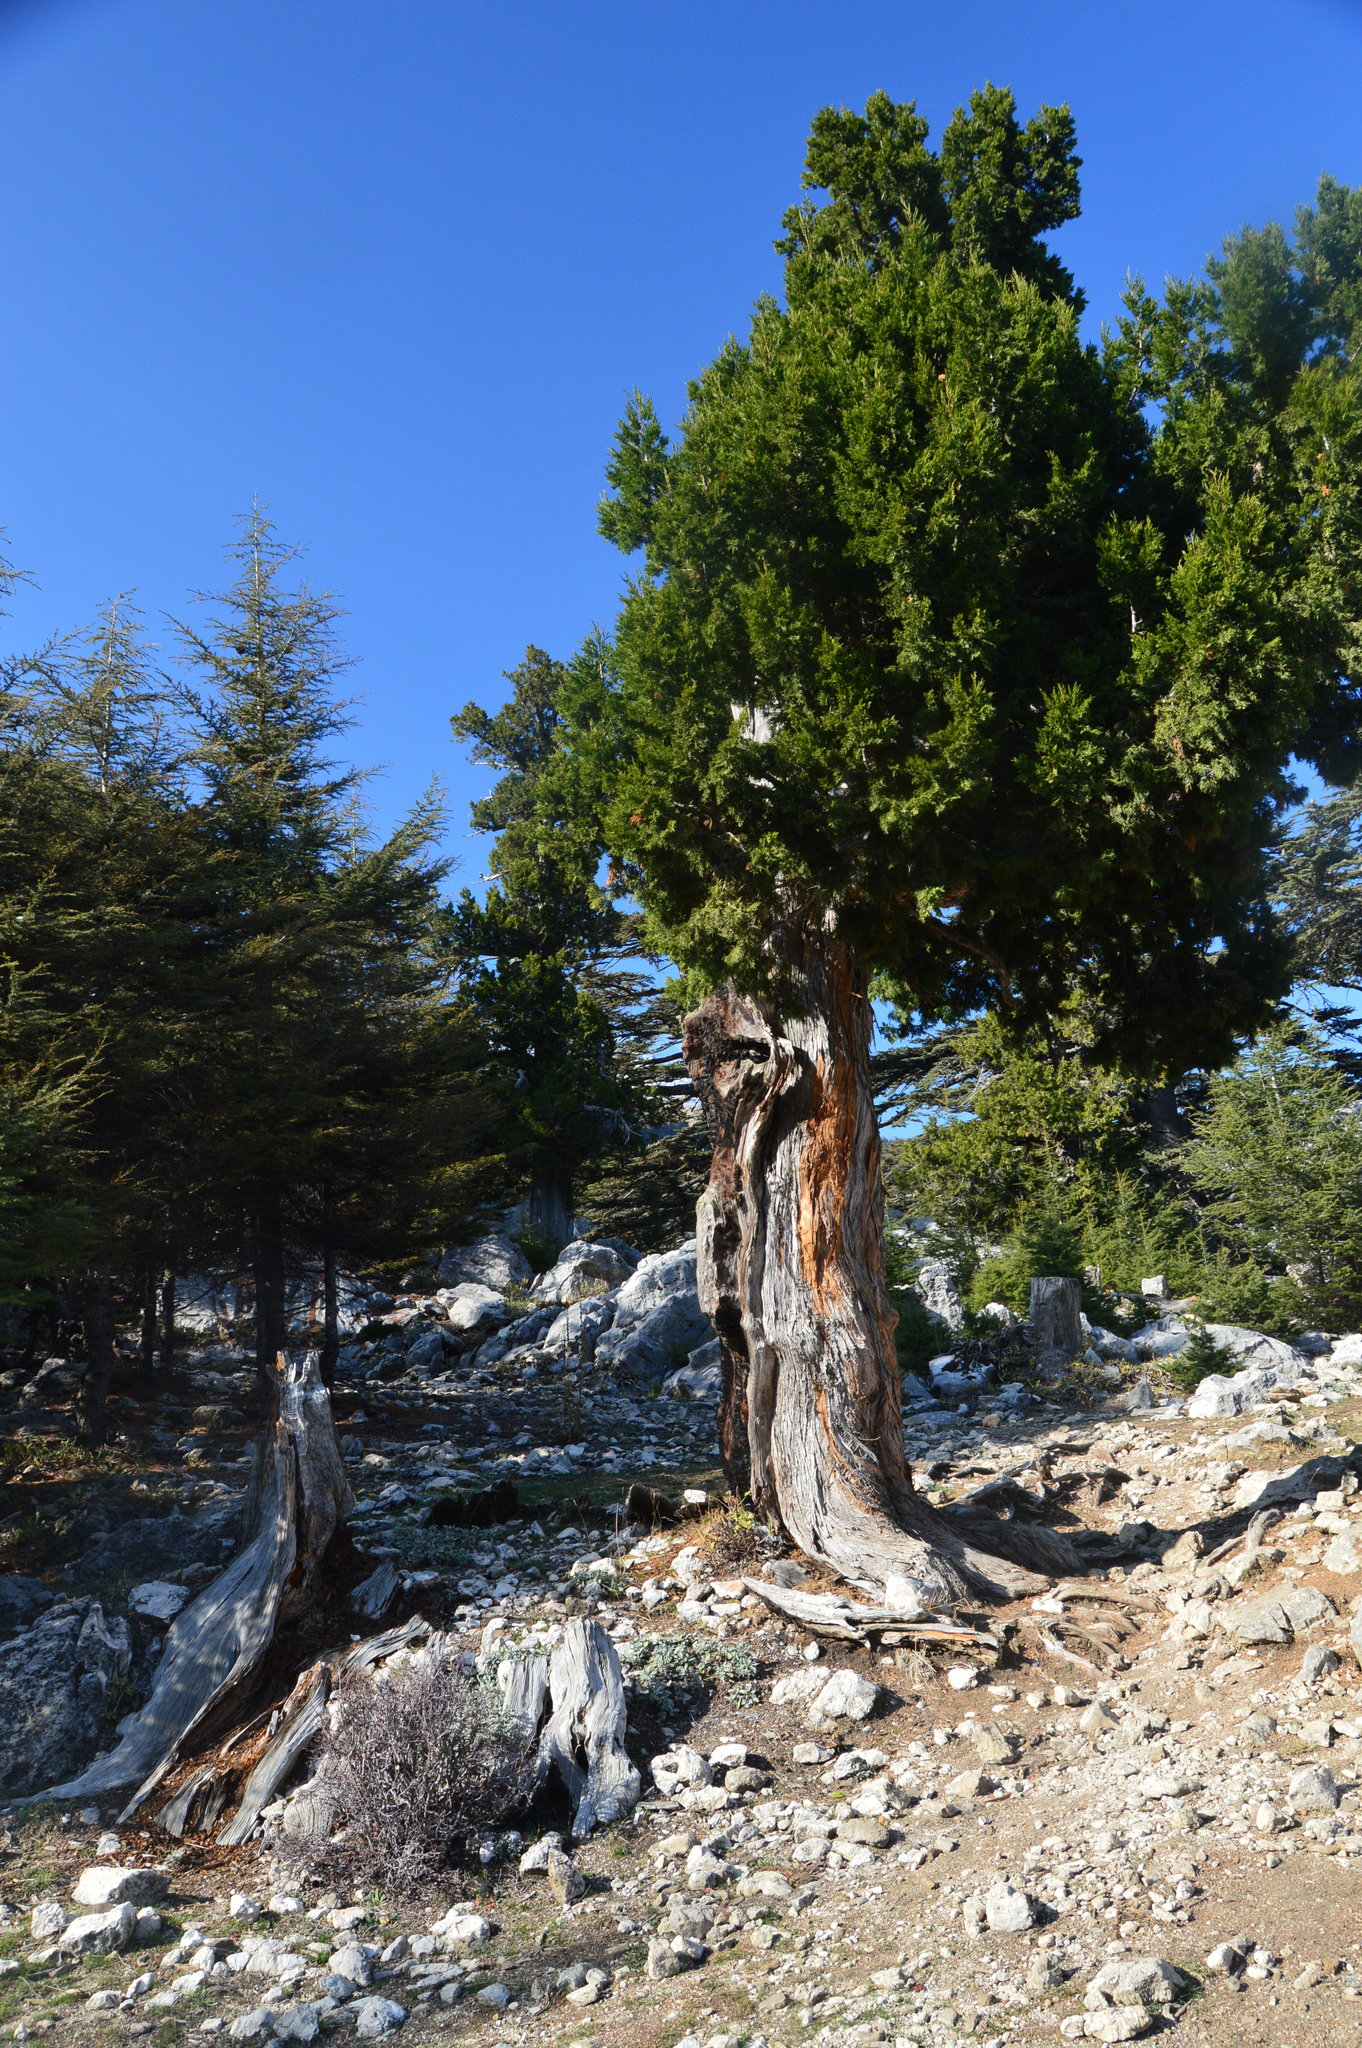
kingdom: Plantae
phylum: Tracheophyta
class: Pinopsida
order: Pinales
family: Cupressaceae
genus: Juniperus
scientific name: Juniperus foetidissima
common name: Stinking juniper
